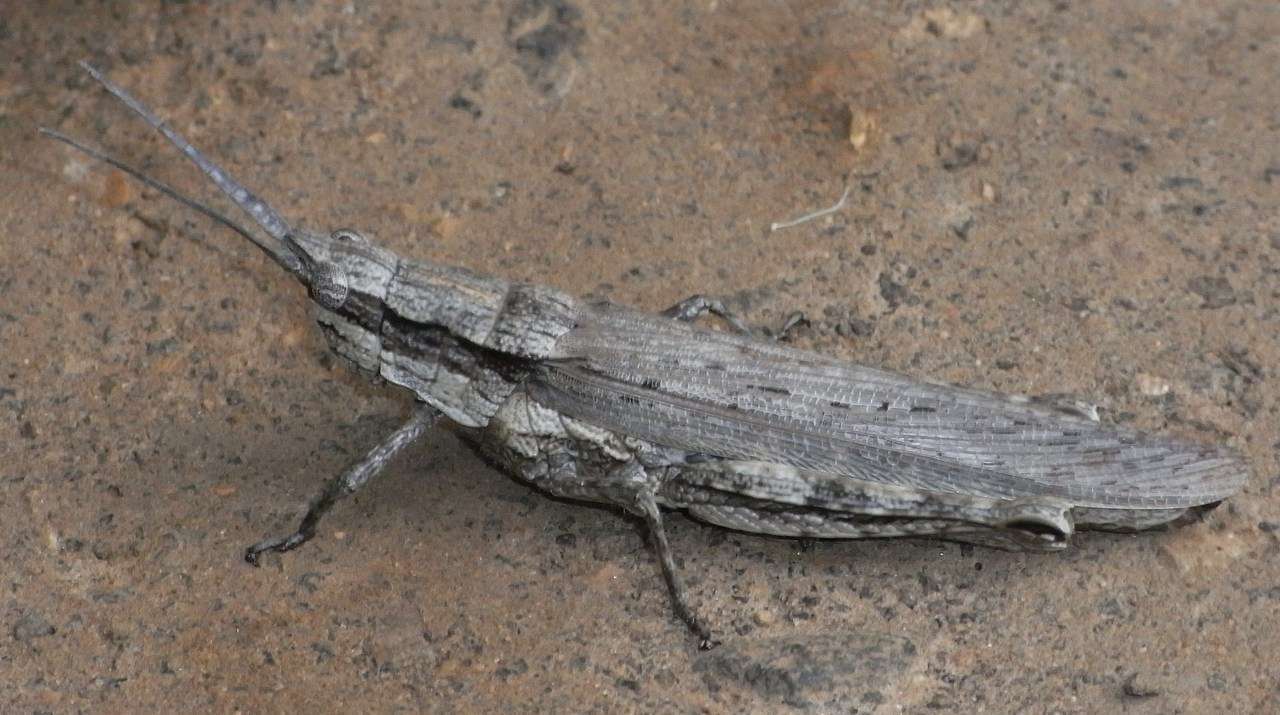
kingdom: Animalia
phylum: Arthropoda
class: Insecta
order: Orthoptera
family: Acrididae
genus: Coryphistes
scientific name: Coryphistes ruricola
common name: Bark-mimicking grasshopper
